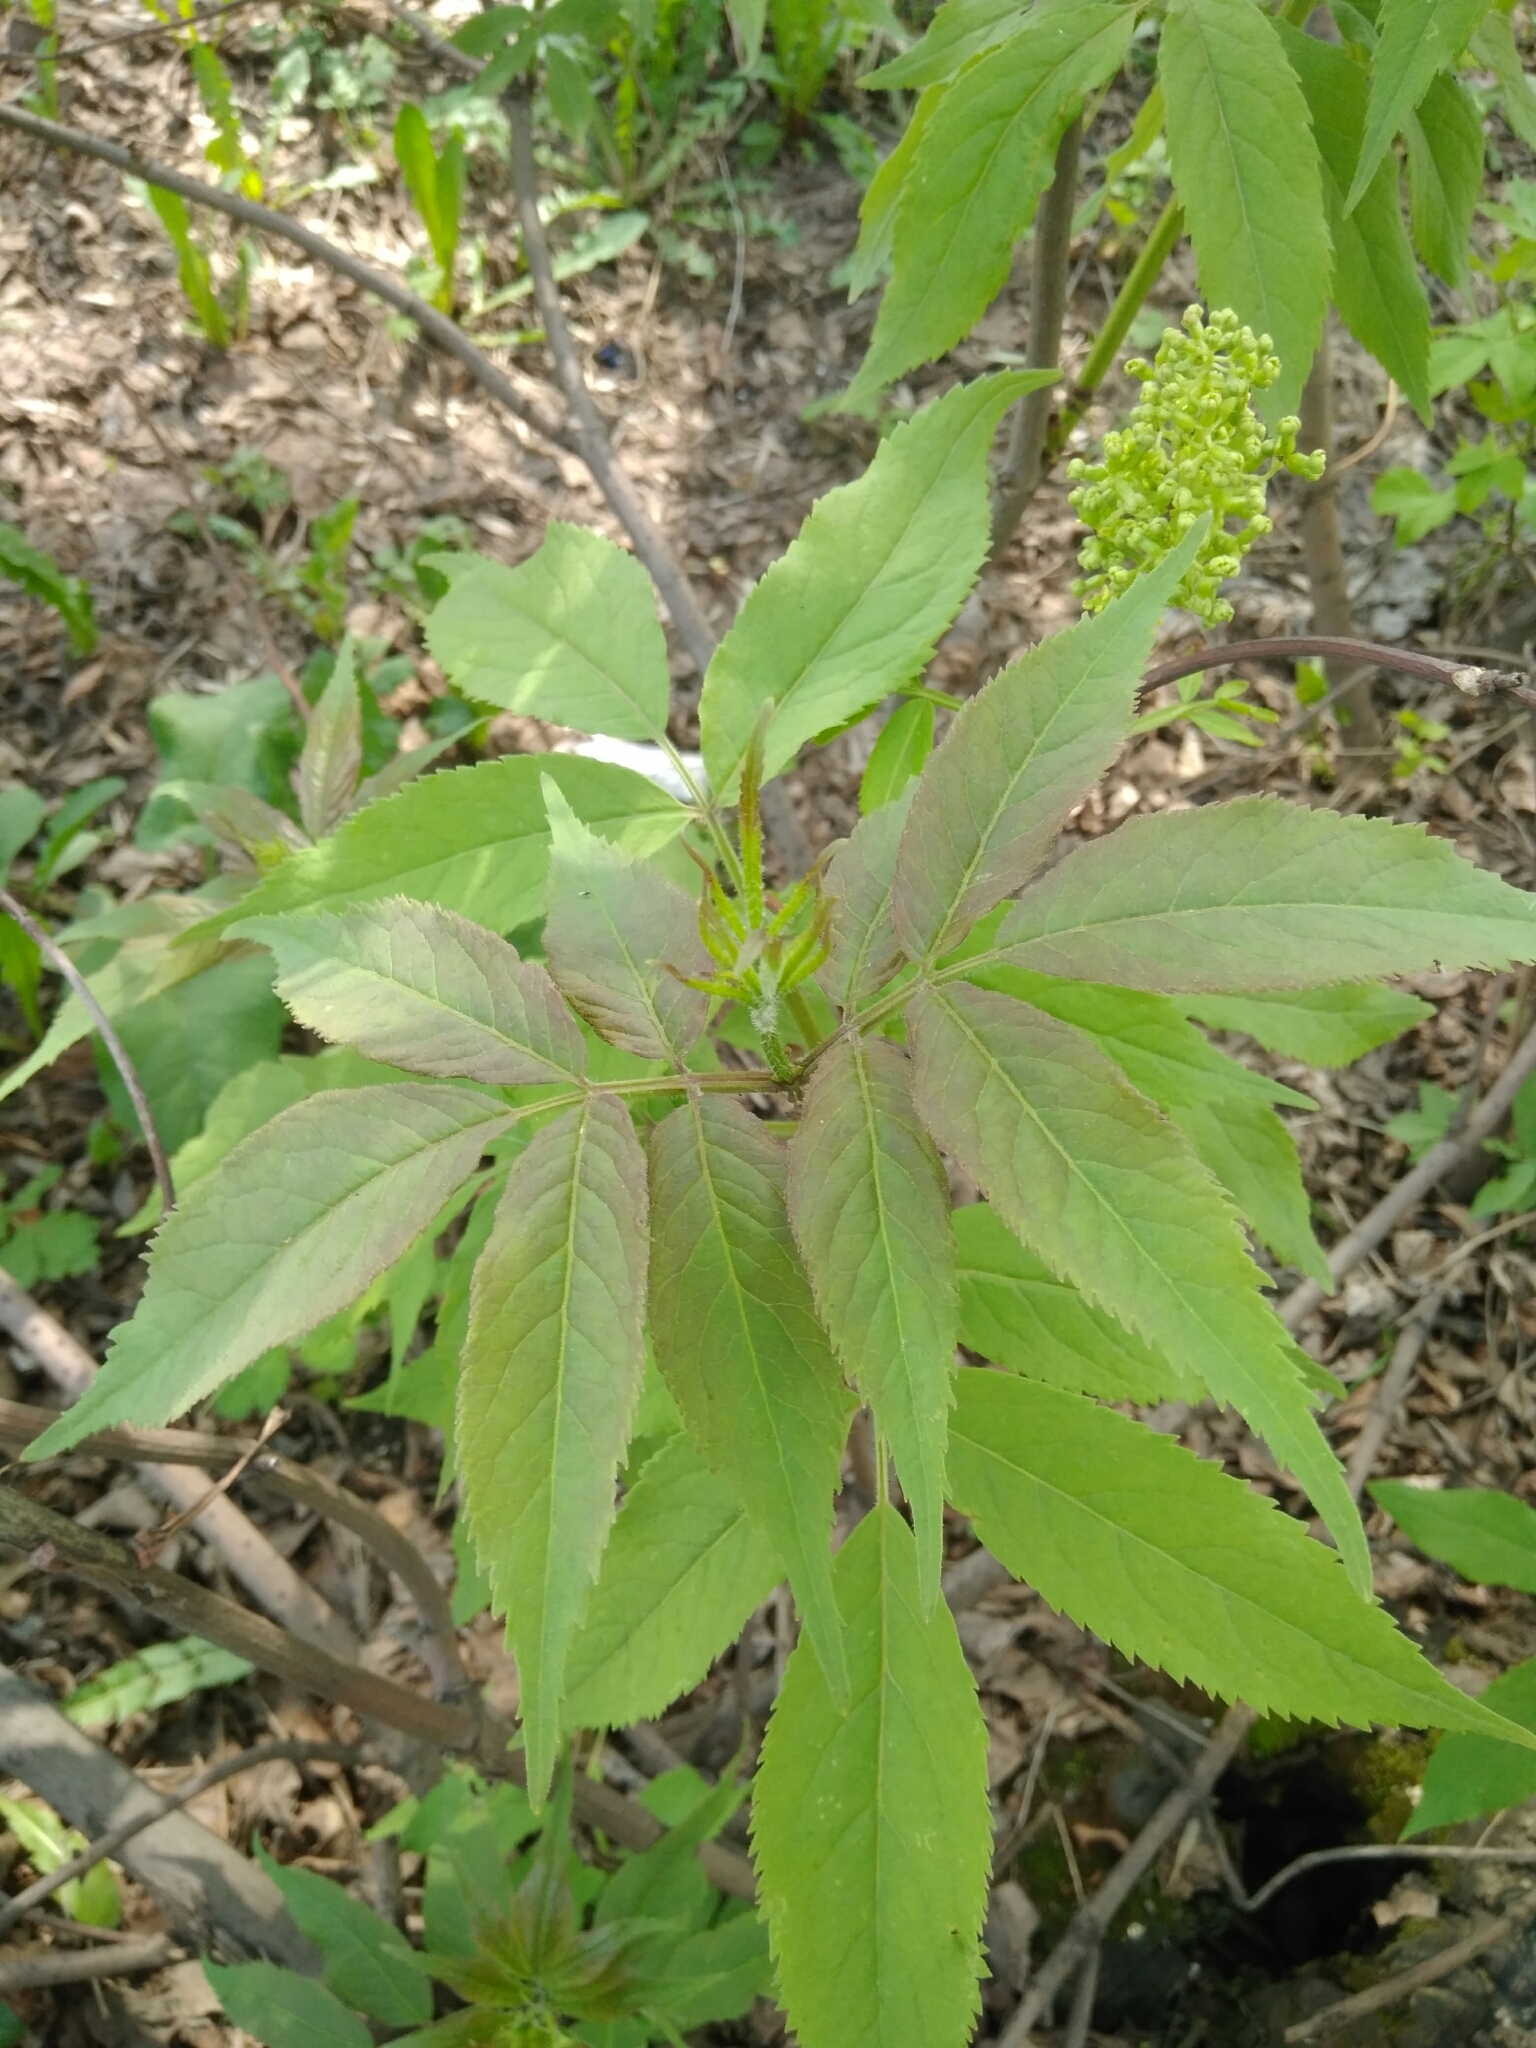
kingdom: Plantae
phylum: Tracheophyta
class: Magnoliopsida
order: Dipsacales
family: Viburnaceae
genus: Sambucus
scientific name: Sambucus racemosa
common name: Red-berried elder
